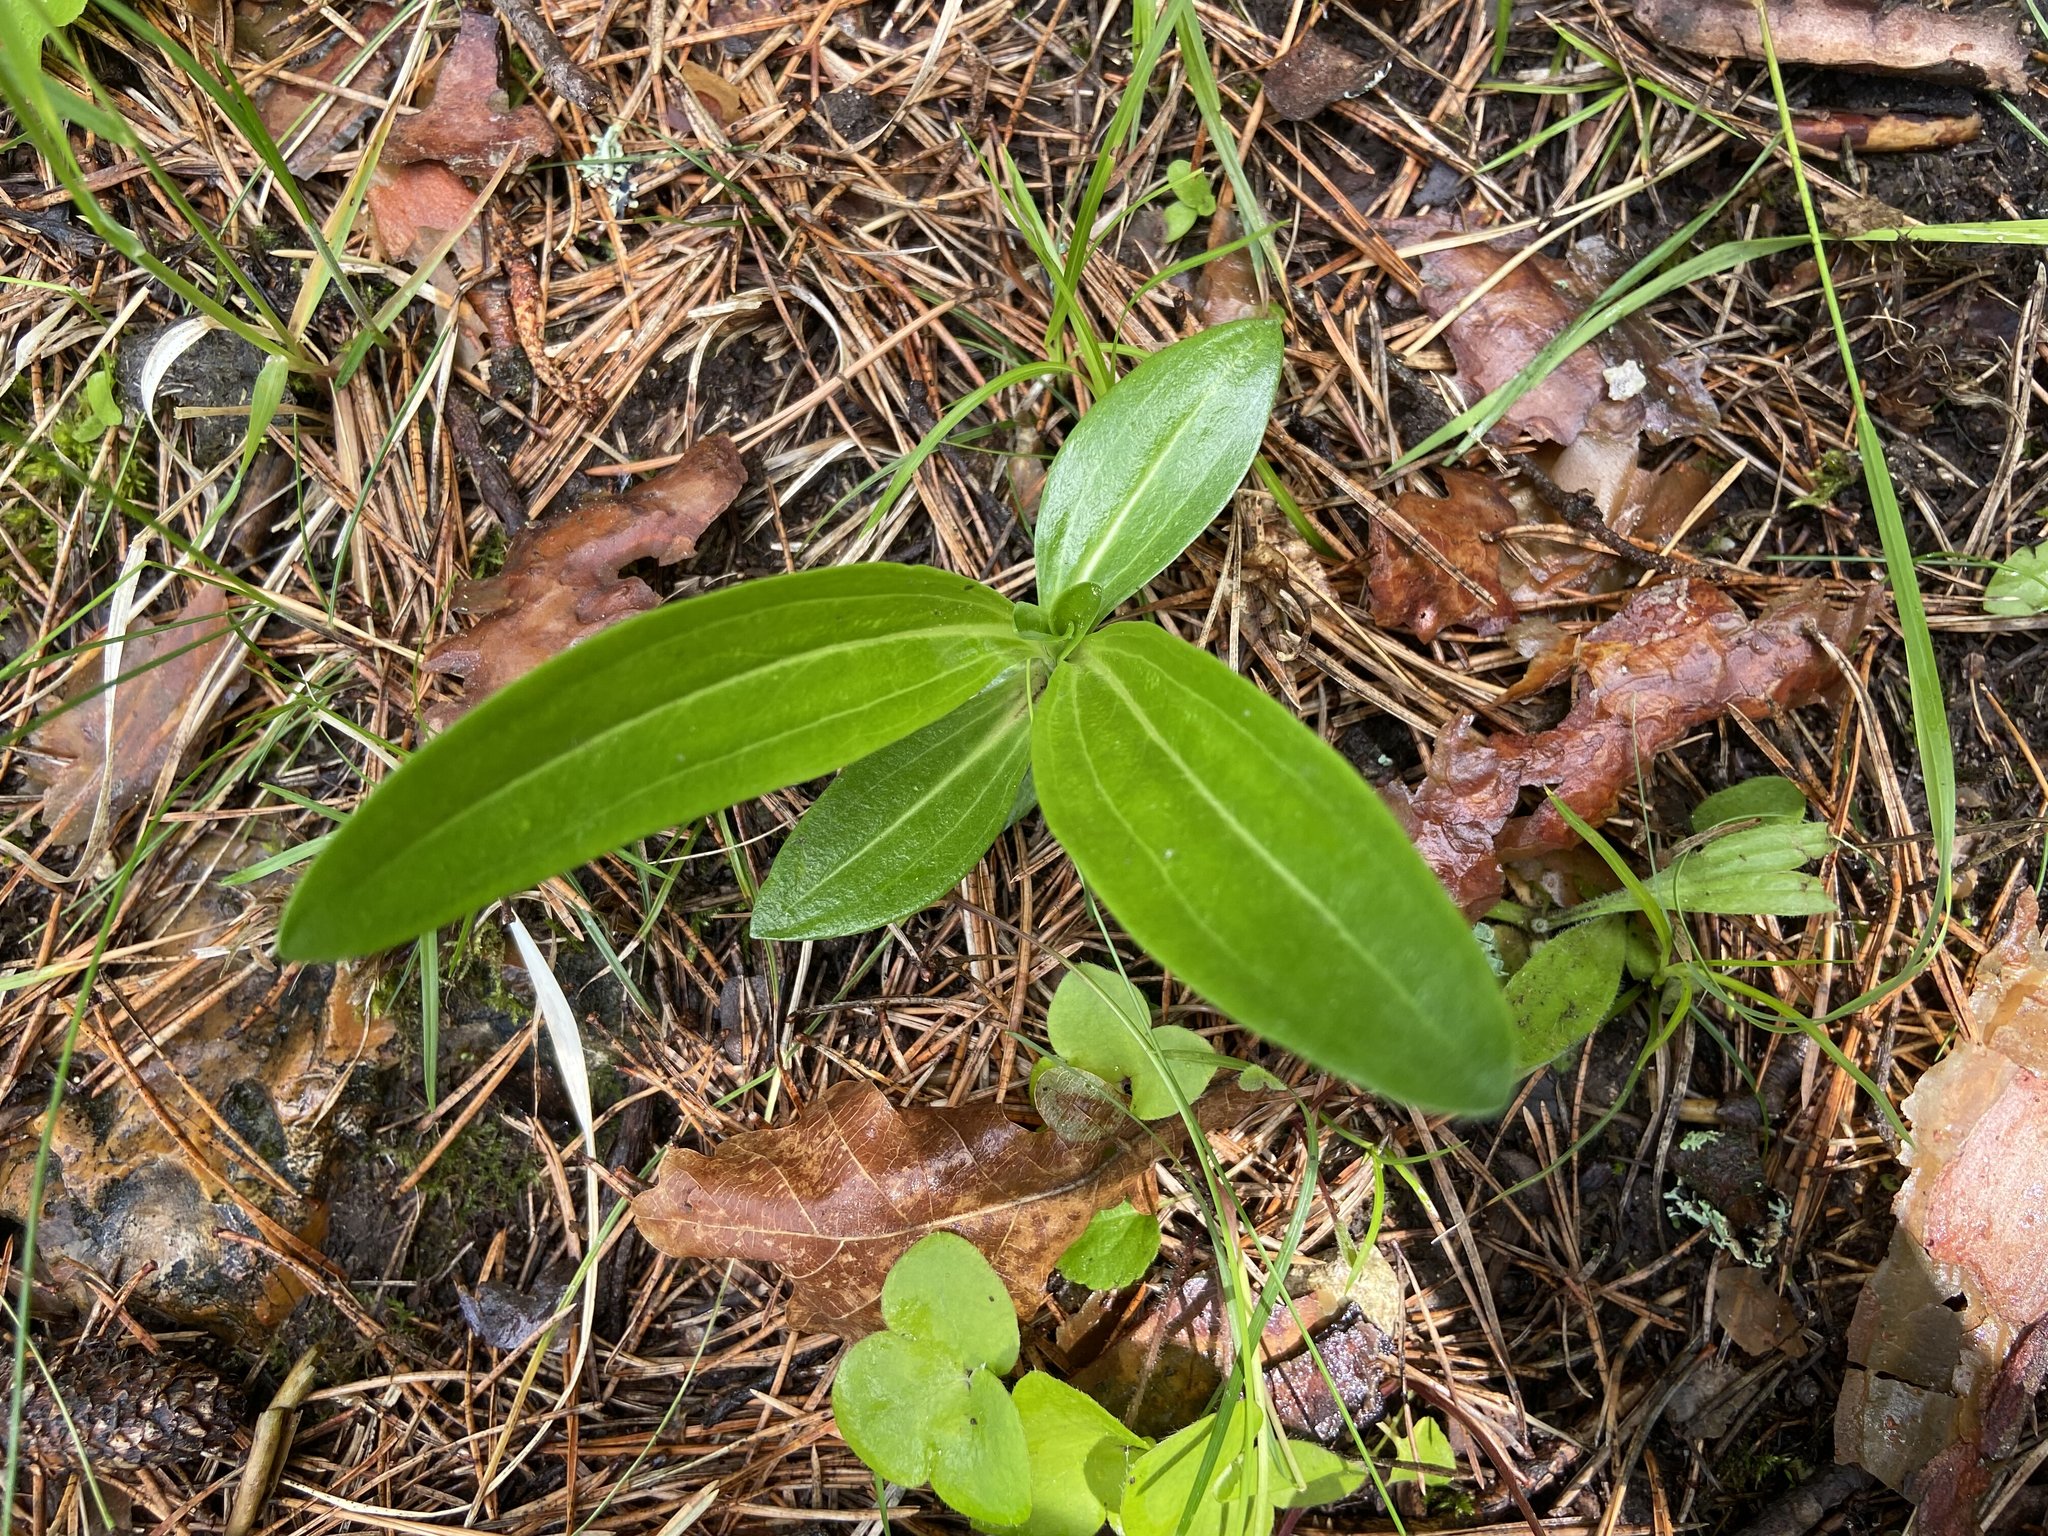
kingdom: Plantae
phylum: Tracheophyta
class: Magnoliopsida
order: Gentianales
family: Gentianaceae
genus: Gentiana
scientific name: Gentiana cruciata
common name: Cross gentian
